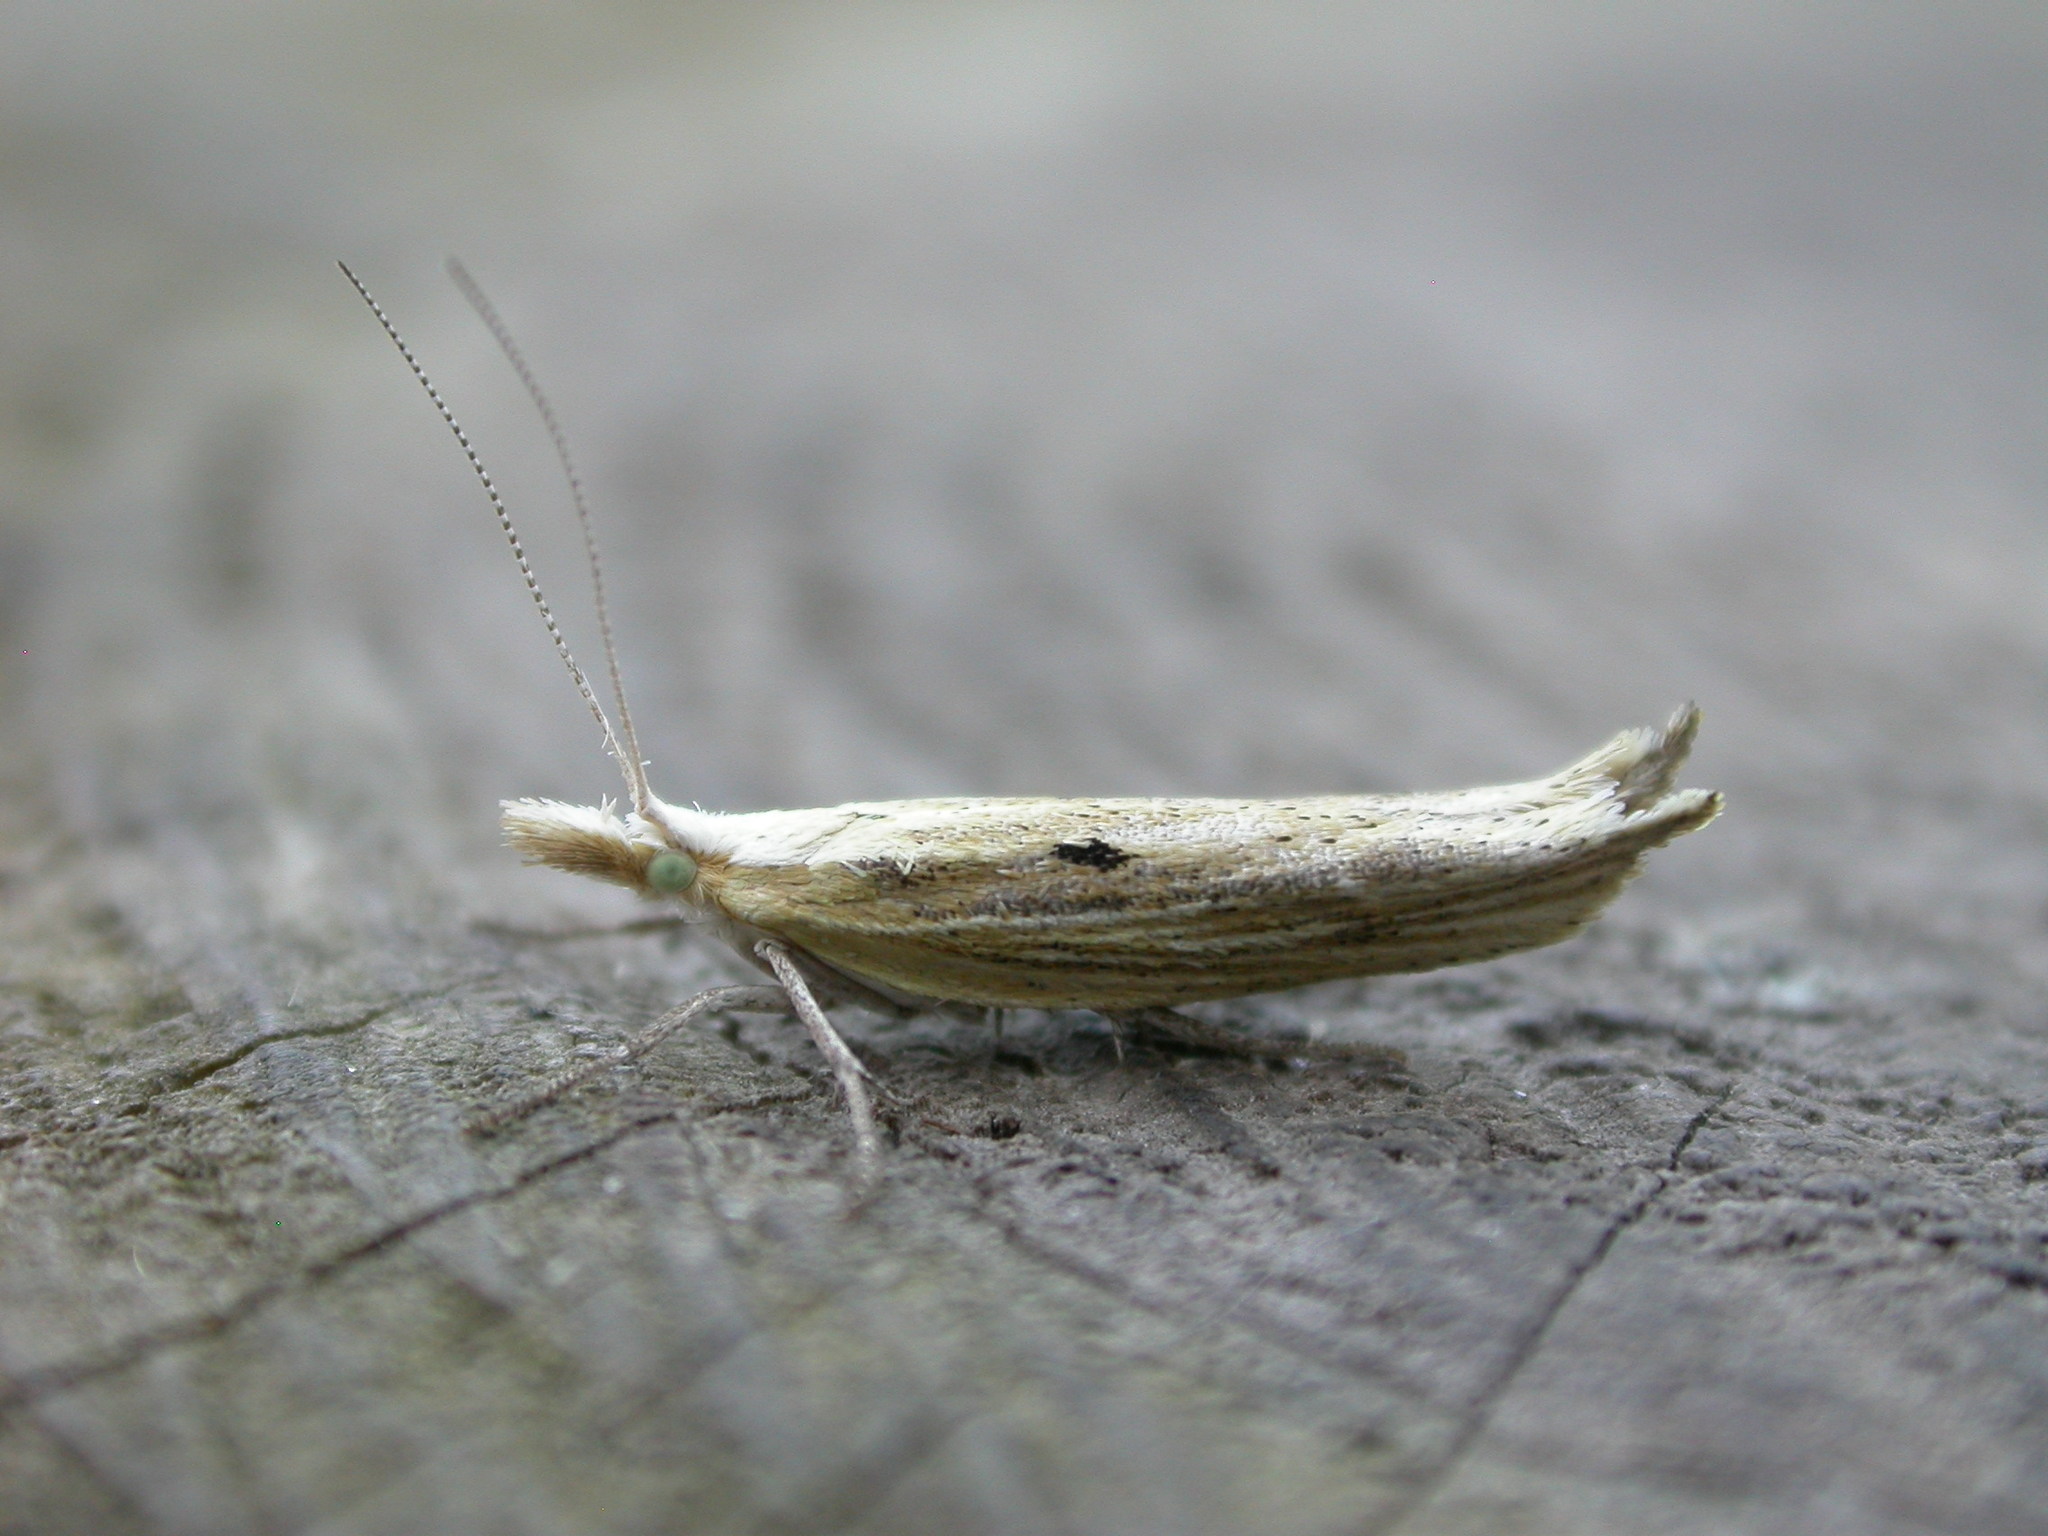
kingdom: Animalia
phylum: Arthropoda
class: Insecta
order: Lepidoptera
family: Ypsolophidae
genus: Ypsolopha
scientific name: Ypsolopha nemorella
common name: Hooked smudge
